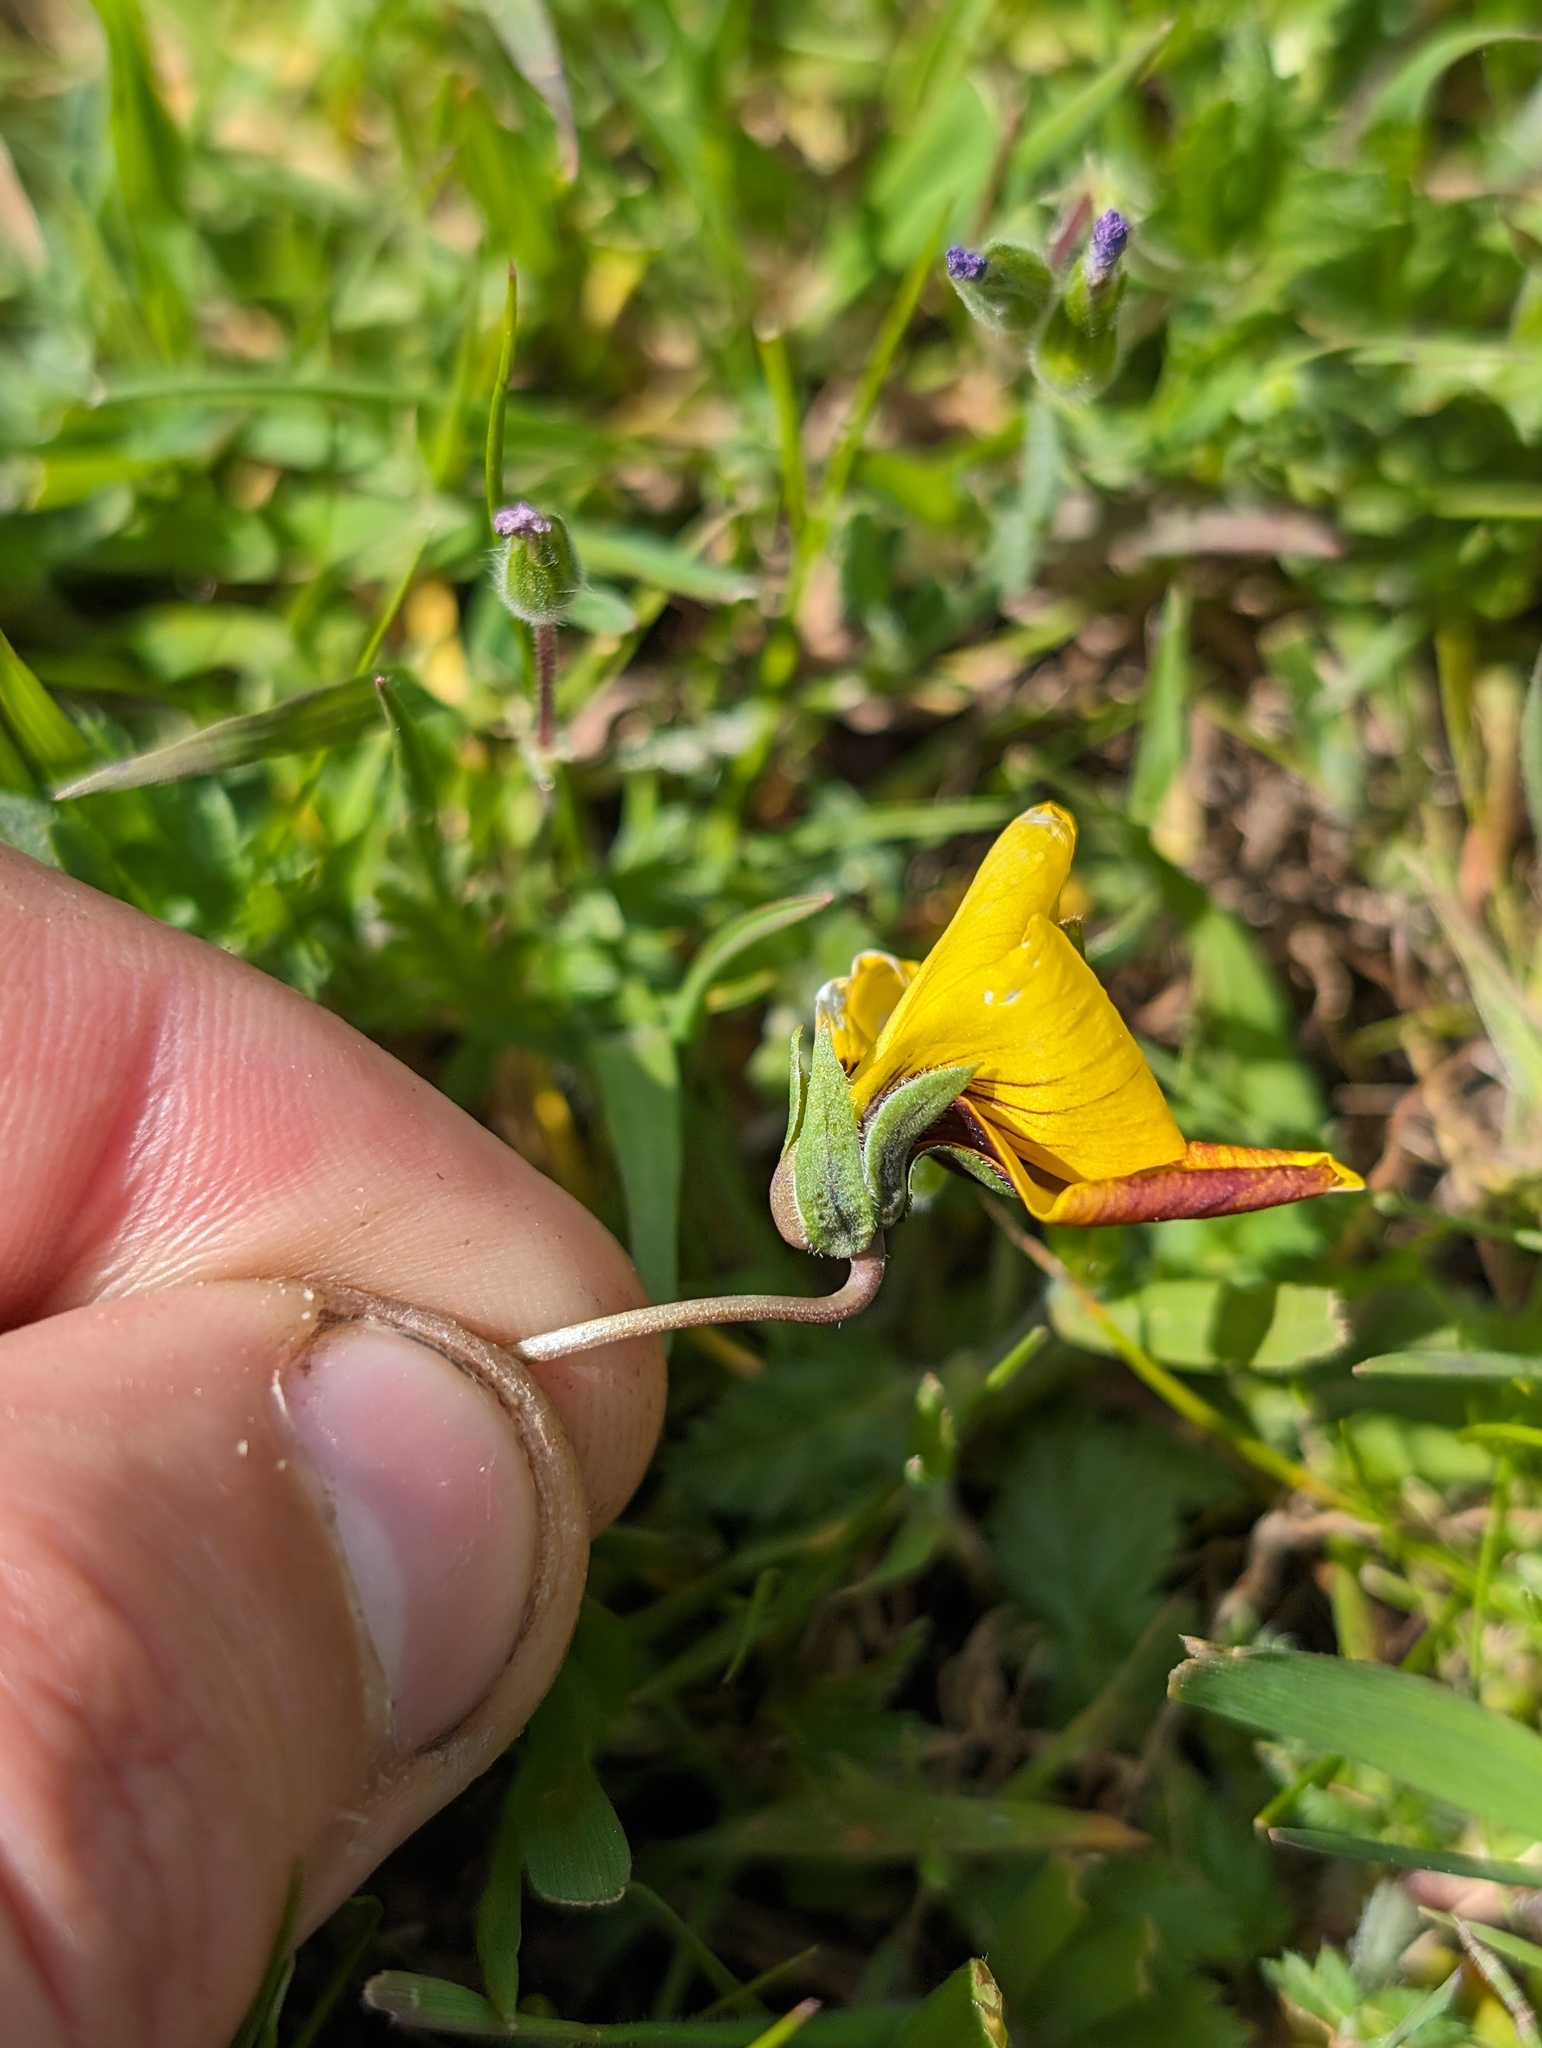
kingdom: Plantae
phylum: Tracheophyta
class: Magnoliopsida
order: Malpighiales
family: Violaceae
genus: Viola
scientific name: Viola douglasii
